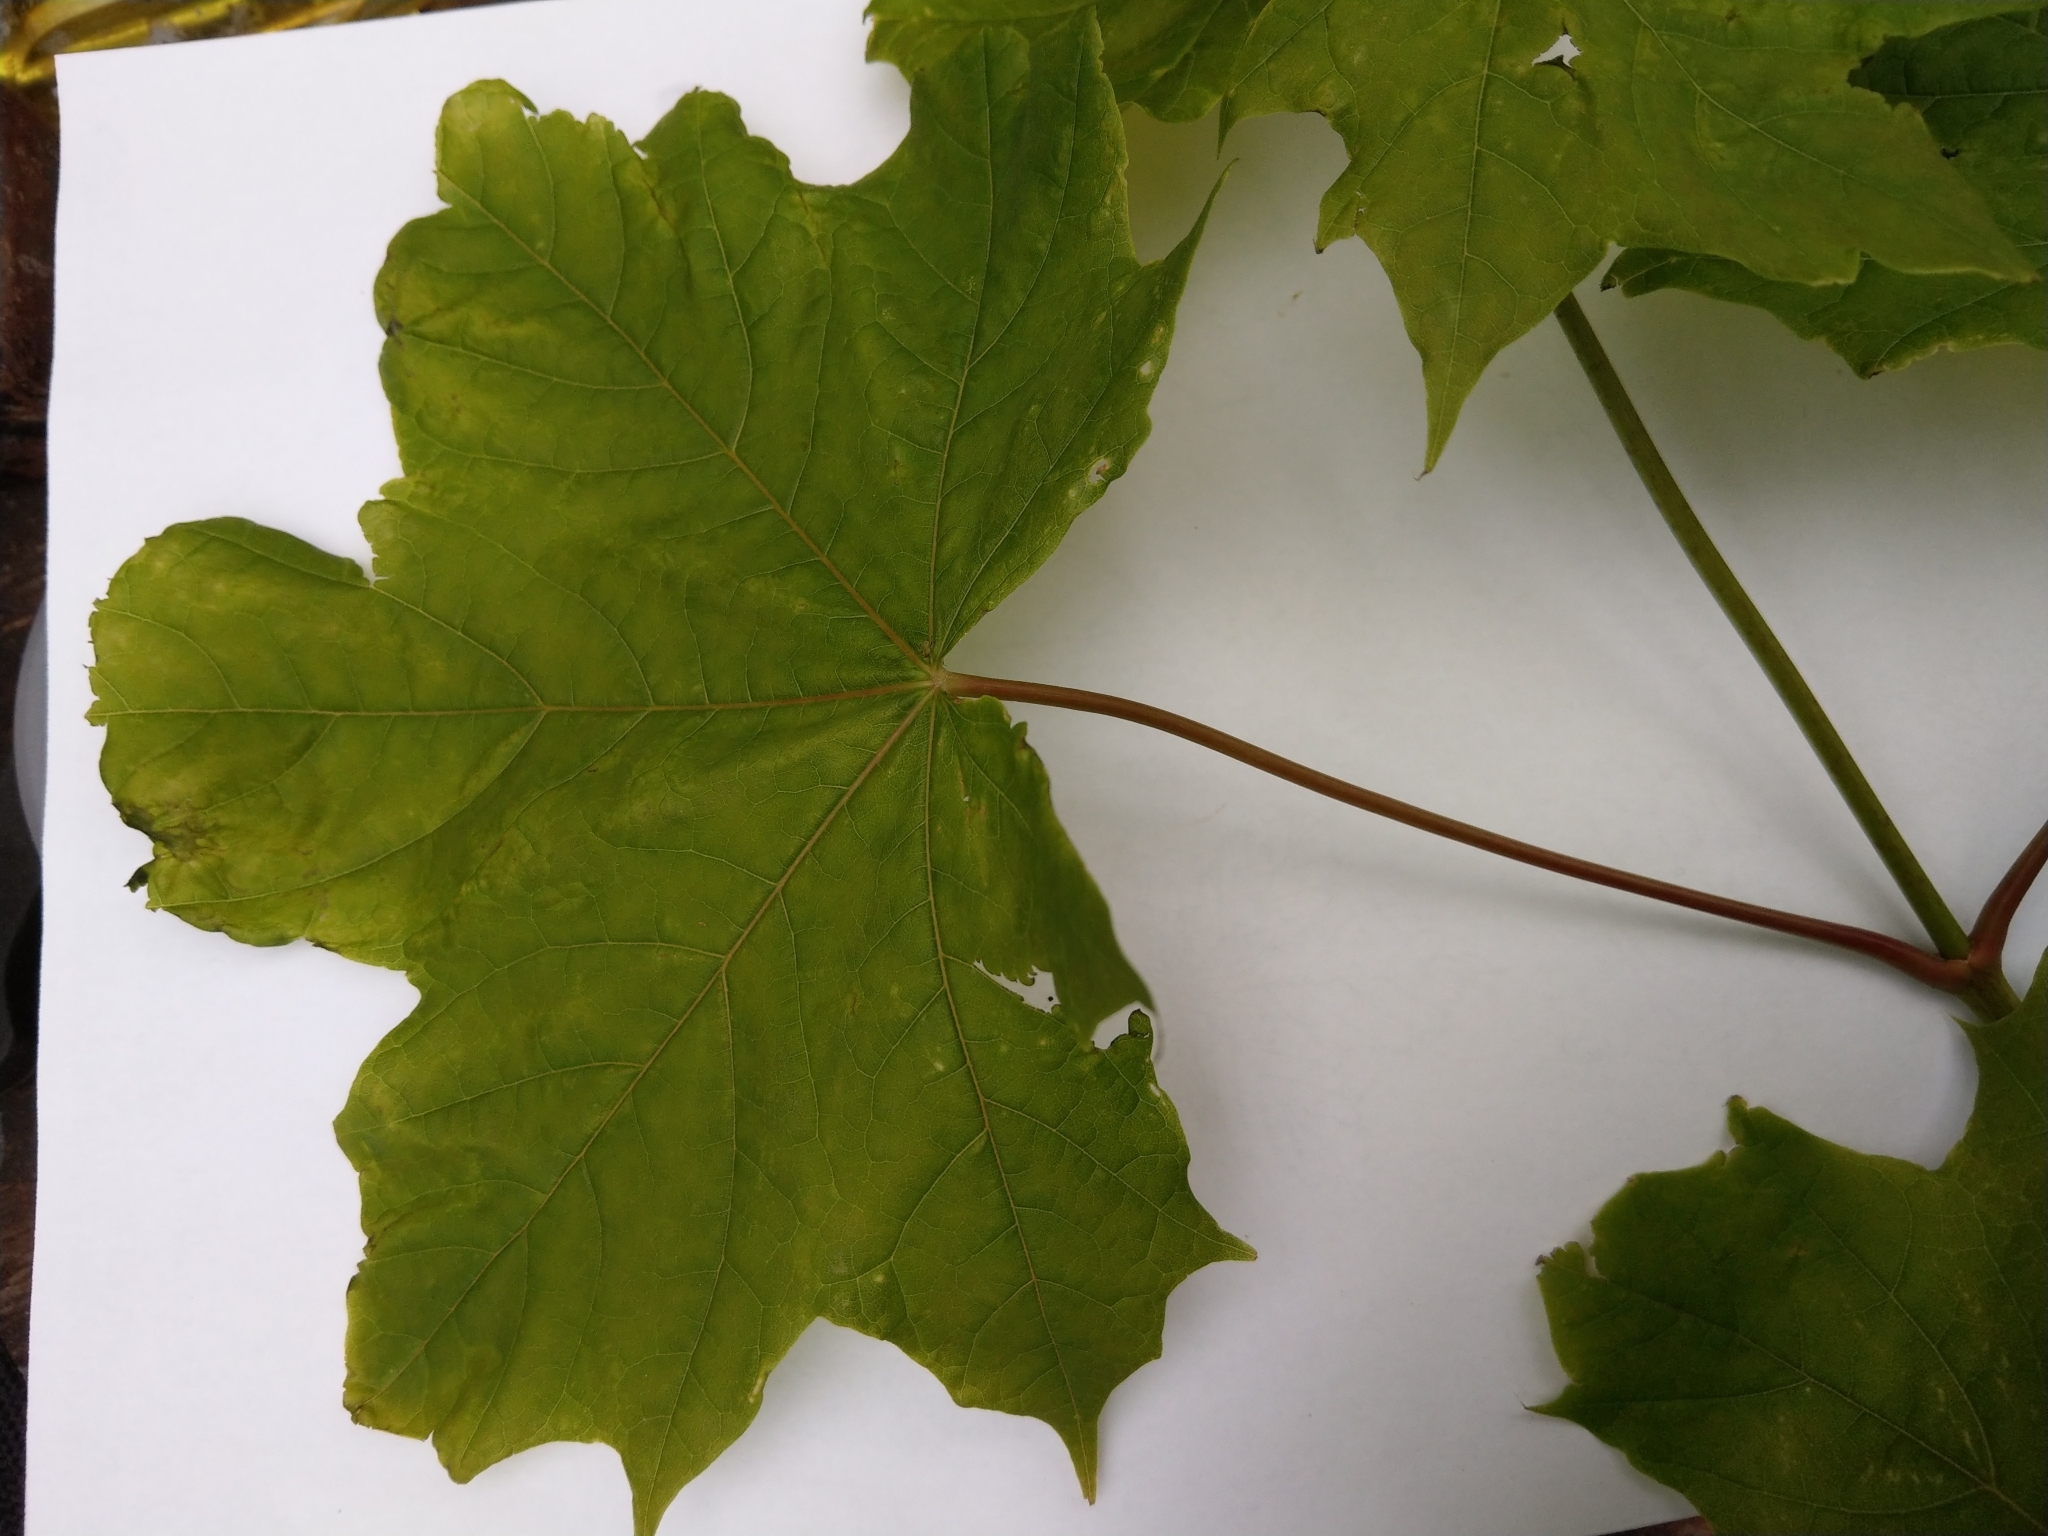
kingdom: Plantae
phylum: Tracheophyta
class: Magnoliopsida
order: Sapindales
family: Sapindaceae
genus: Acer
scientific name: Acer platanoides
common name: Norway maple
